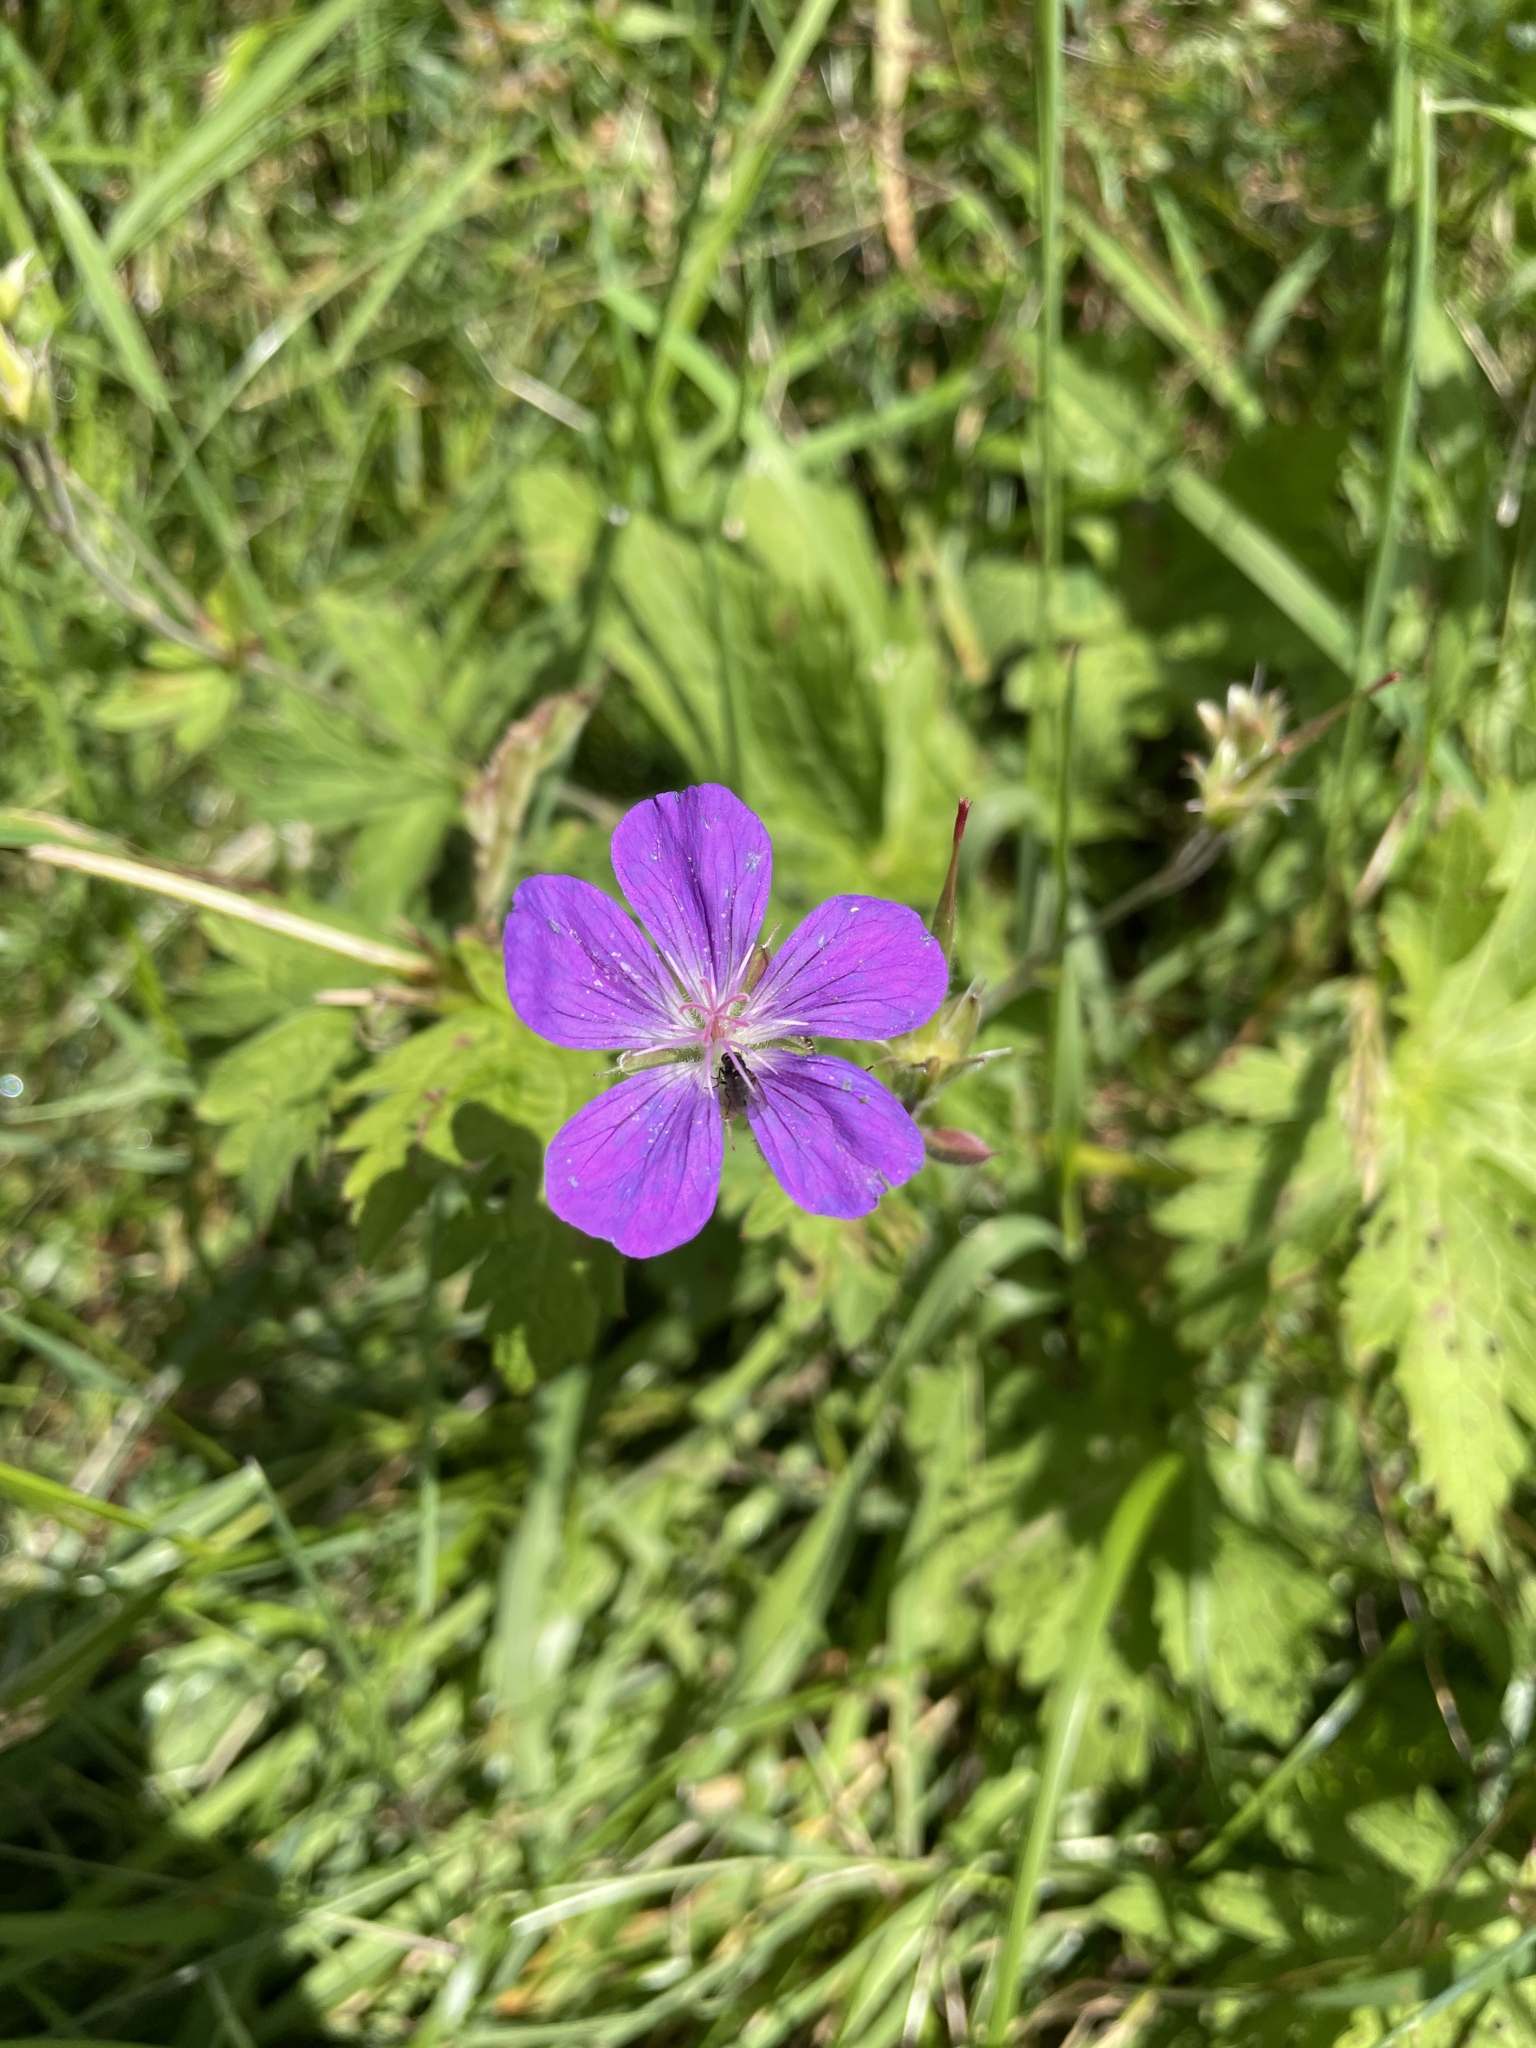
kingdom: Plantae
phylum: Tracheophyta
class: Magnoliopsida
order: Geraniales
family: Geraniaceae
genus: Geranium
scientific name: Geranium sylvaticum
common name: Wood crane's-bill
